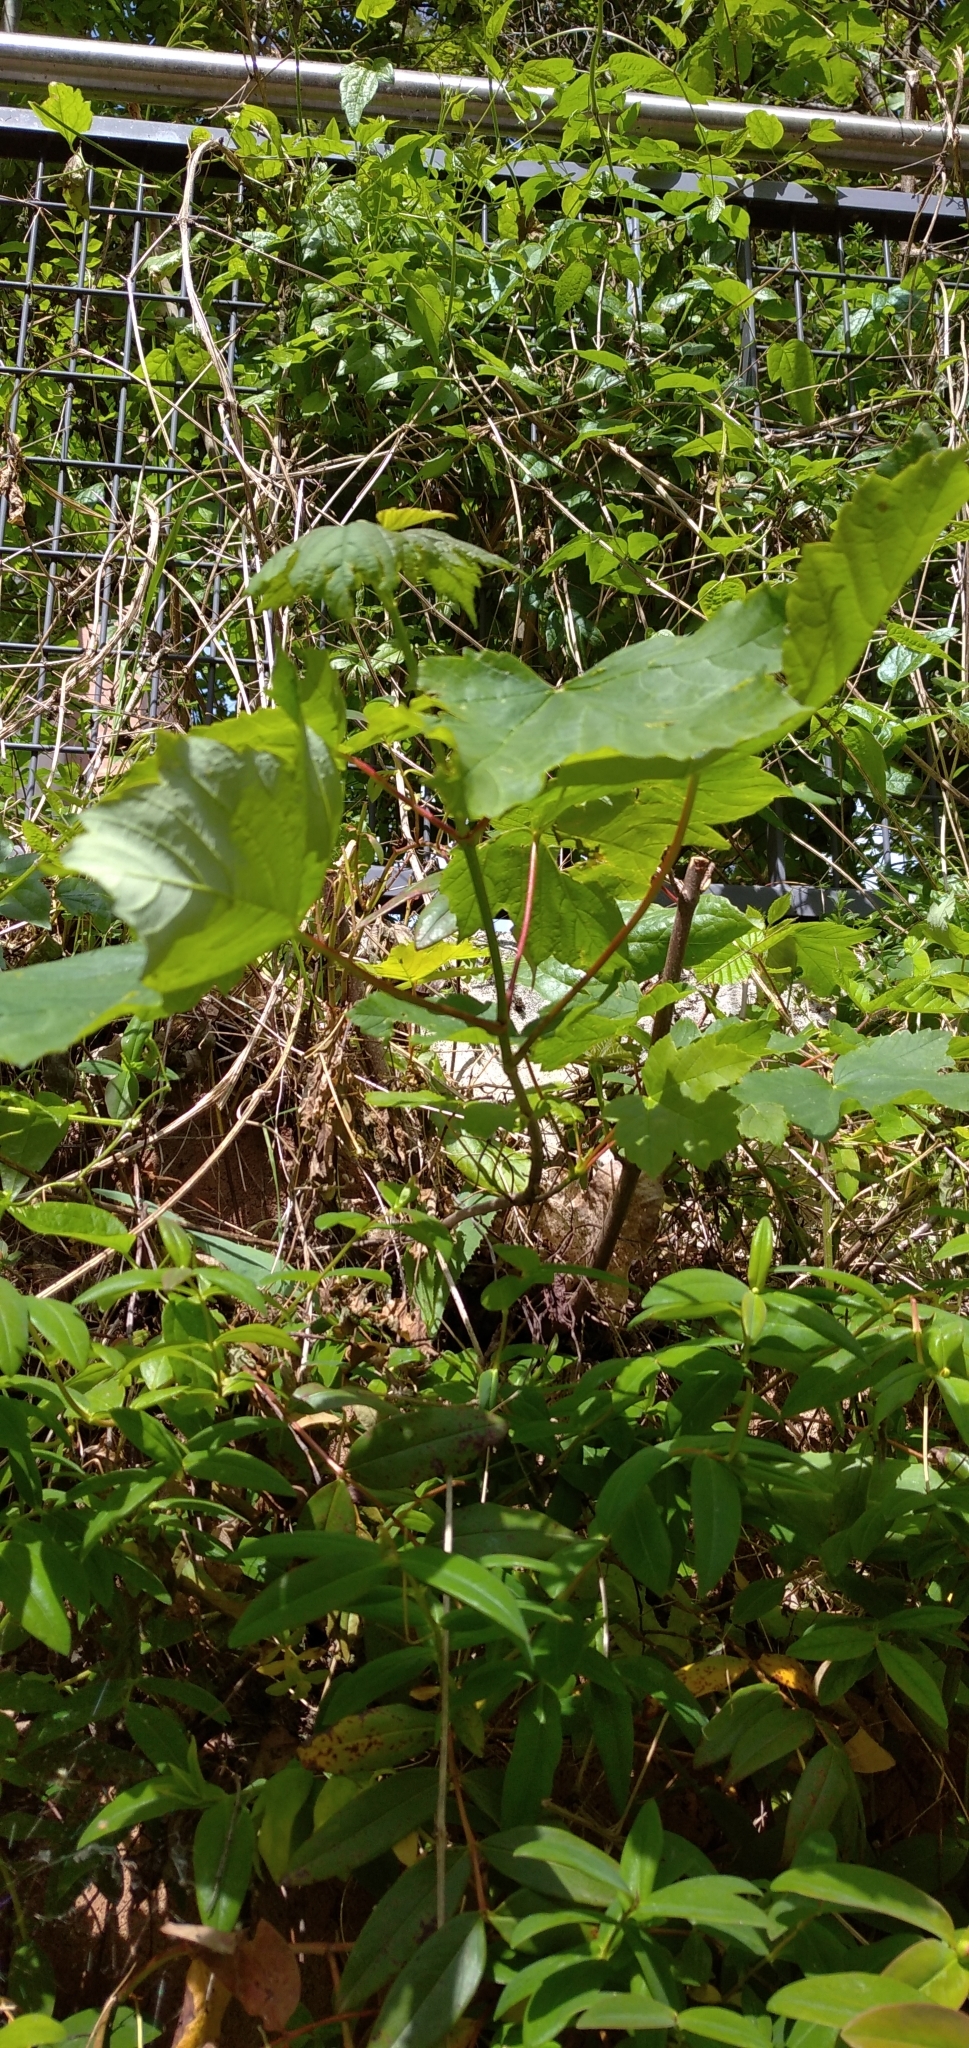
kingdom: Plantae
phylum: Tracheophyta
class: Magnoliopsida
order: Sapindales
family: Sapindaceae
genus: Acer
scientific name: Acer pseudoplatanus
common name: Sycamore
